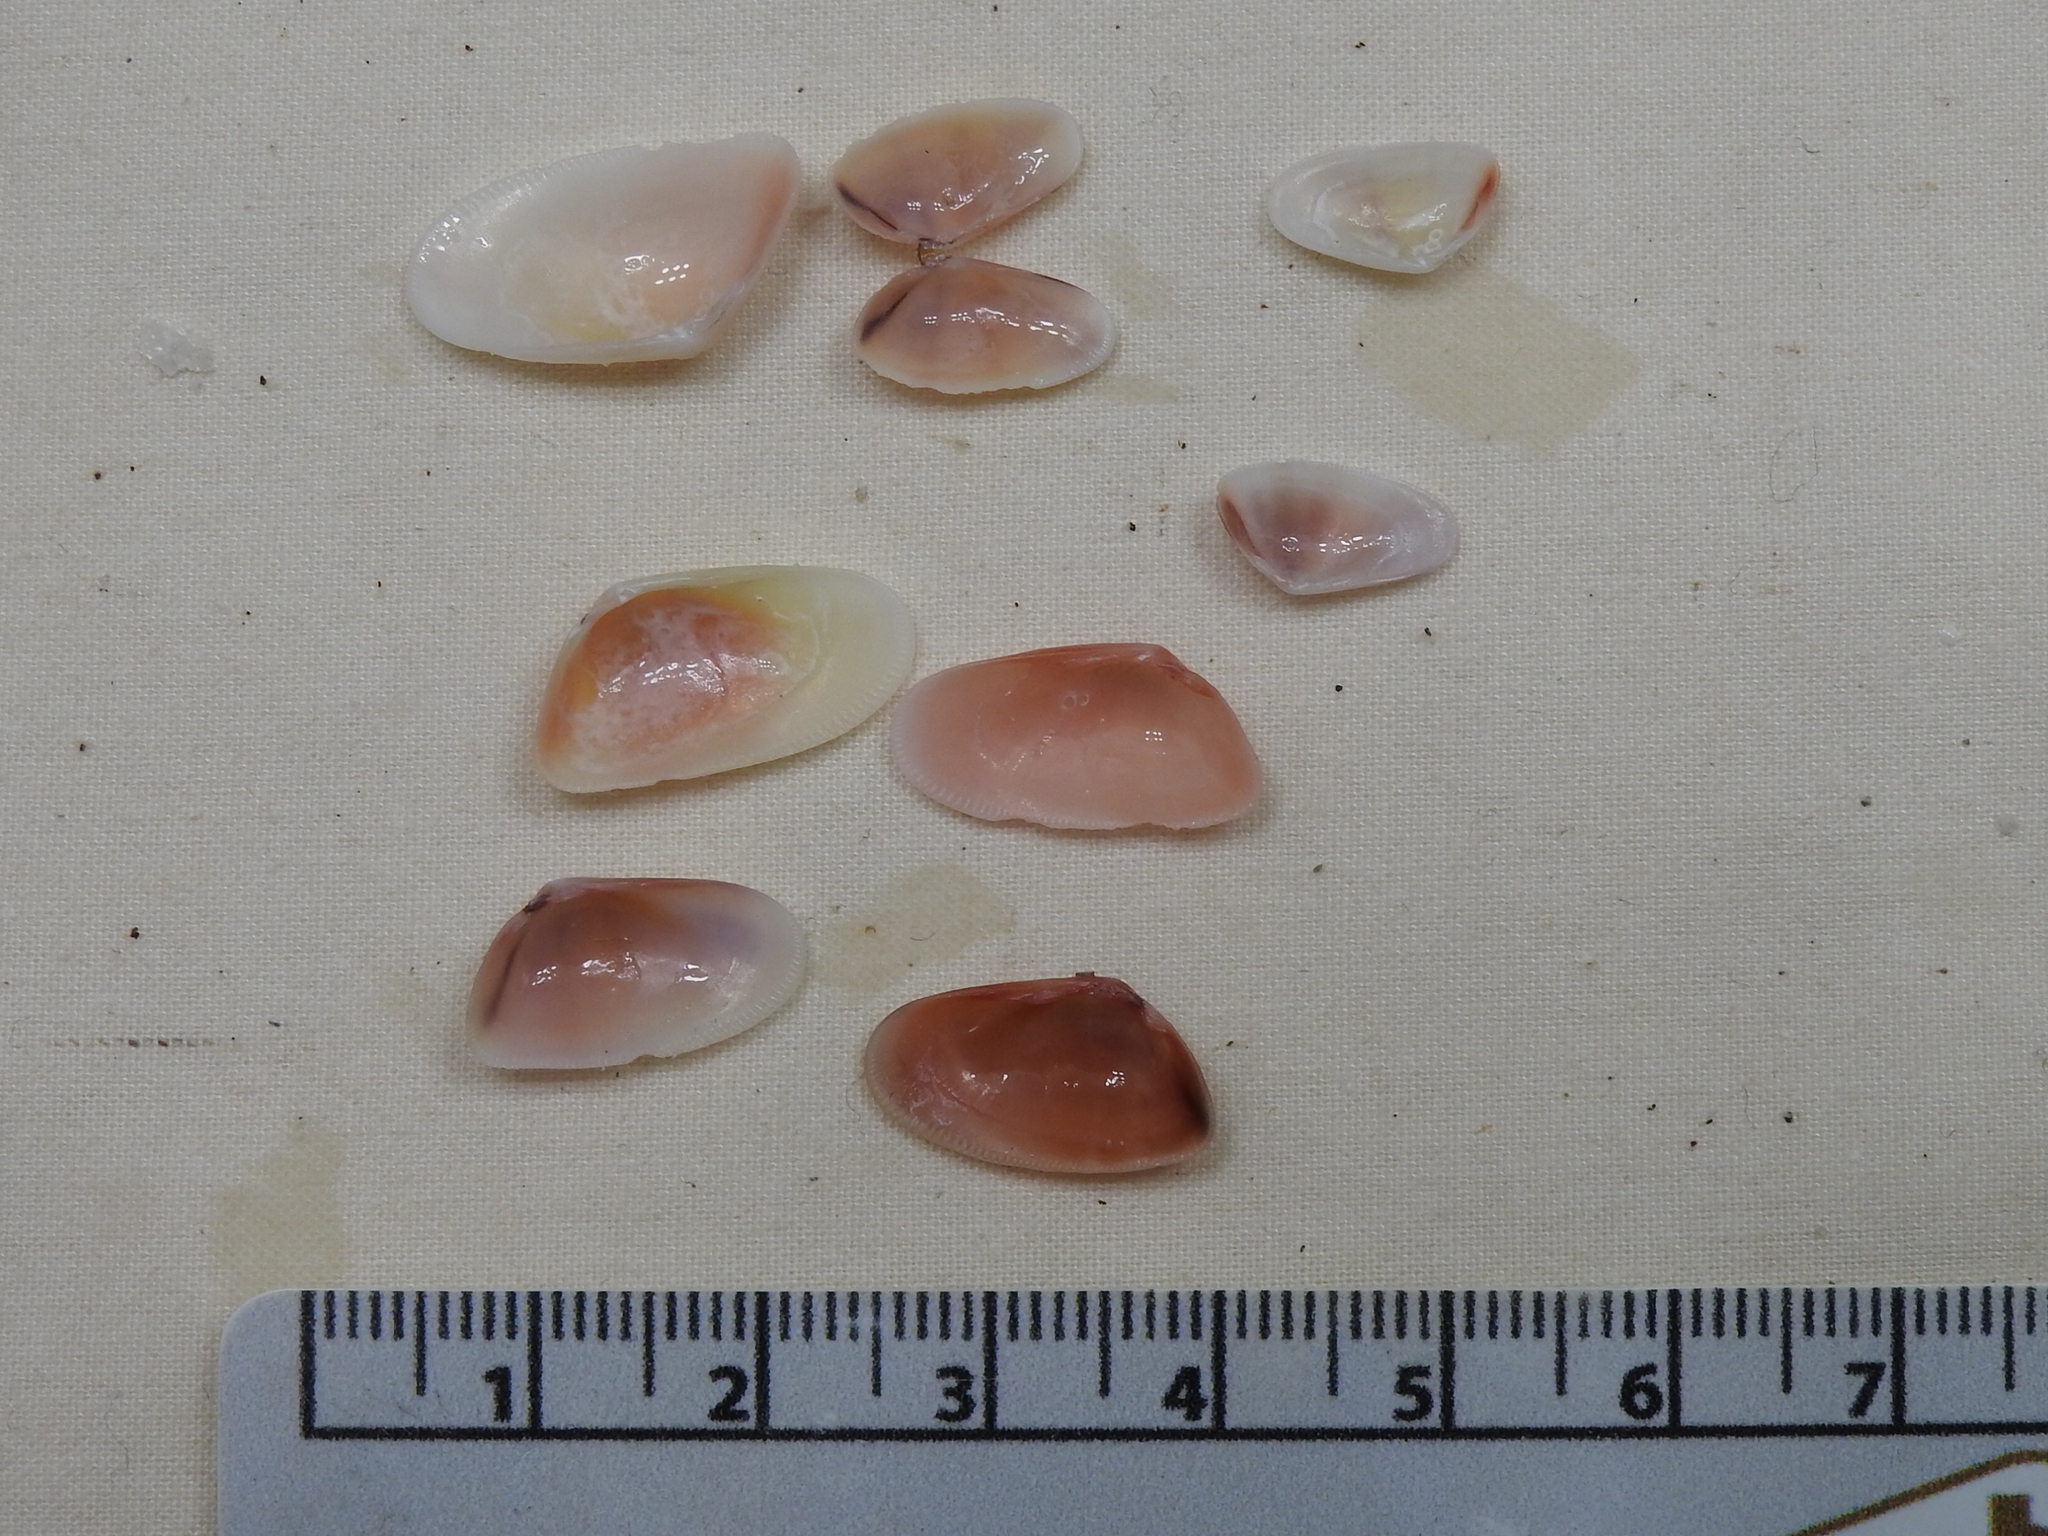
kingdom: Animalia
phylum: Mollusca
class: Bivalvia
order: Cardiida
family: Donacidae
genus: Donax
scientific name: Donax variabilis
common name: Butterfly shell
